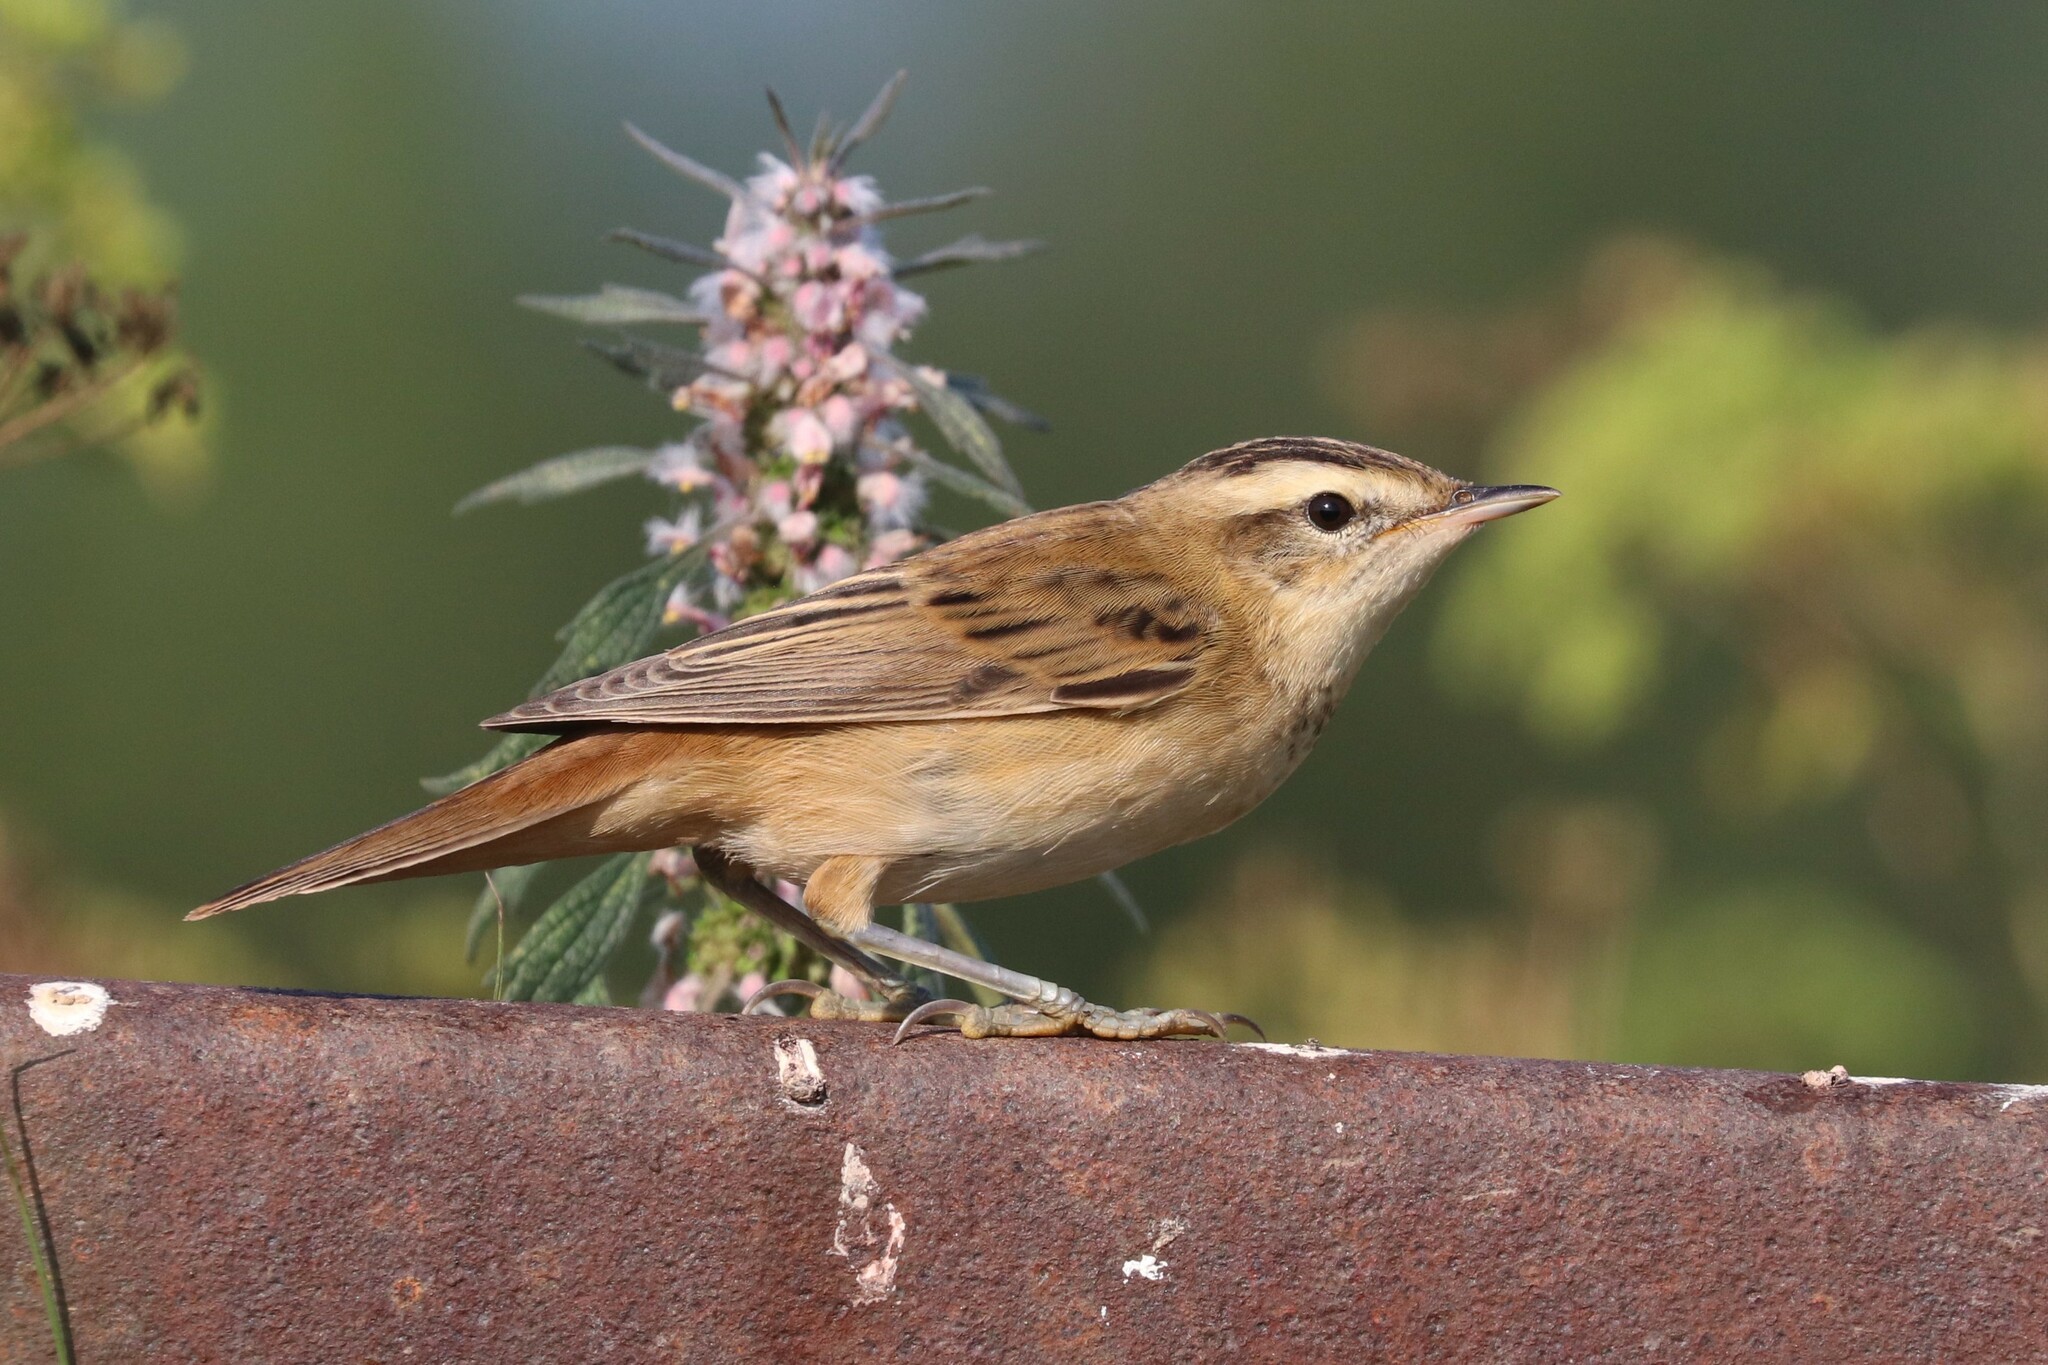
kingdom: Animalia
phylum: Chordata
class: Aves
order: Passeriformes
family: Acrocephalidae
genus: Acrocephalus
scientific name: Acrocephalus schoenobaenus
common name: Sedge warbler
